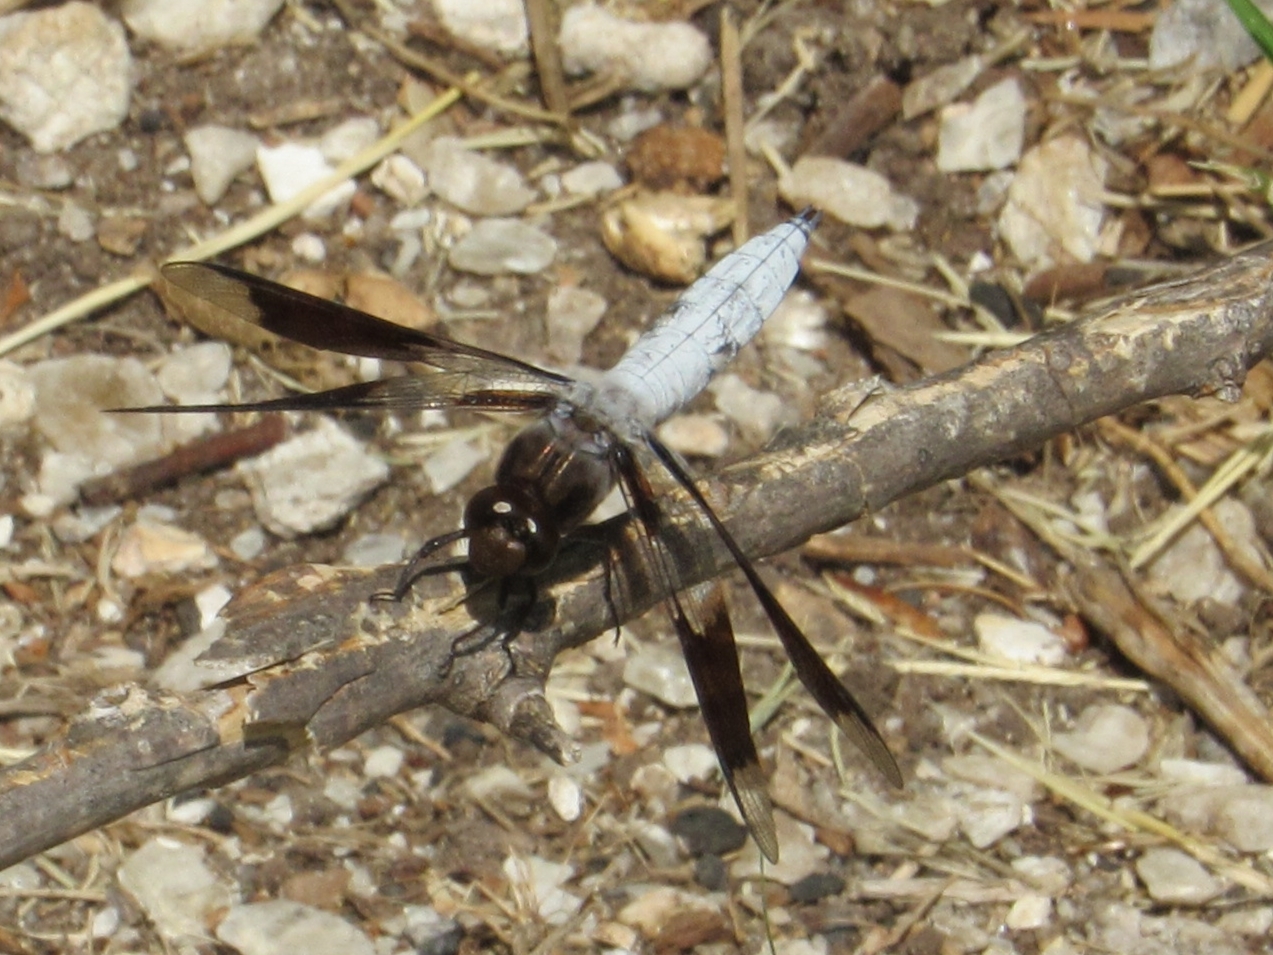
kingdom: Animalia
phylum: Arthropoda
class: Insecta
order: Odonata
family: Libellulidae
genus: Plathemis
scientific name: Plathemis lydia
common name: Common whitetail
